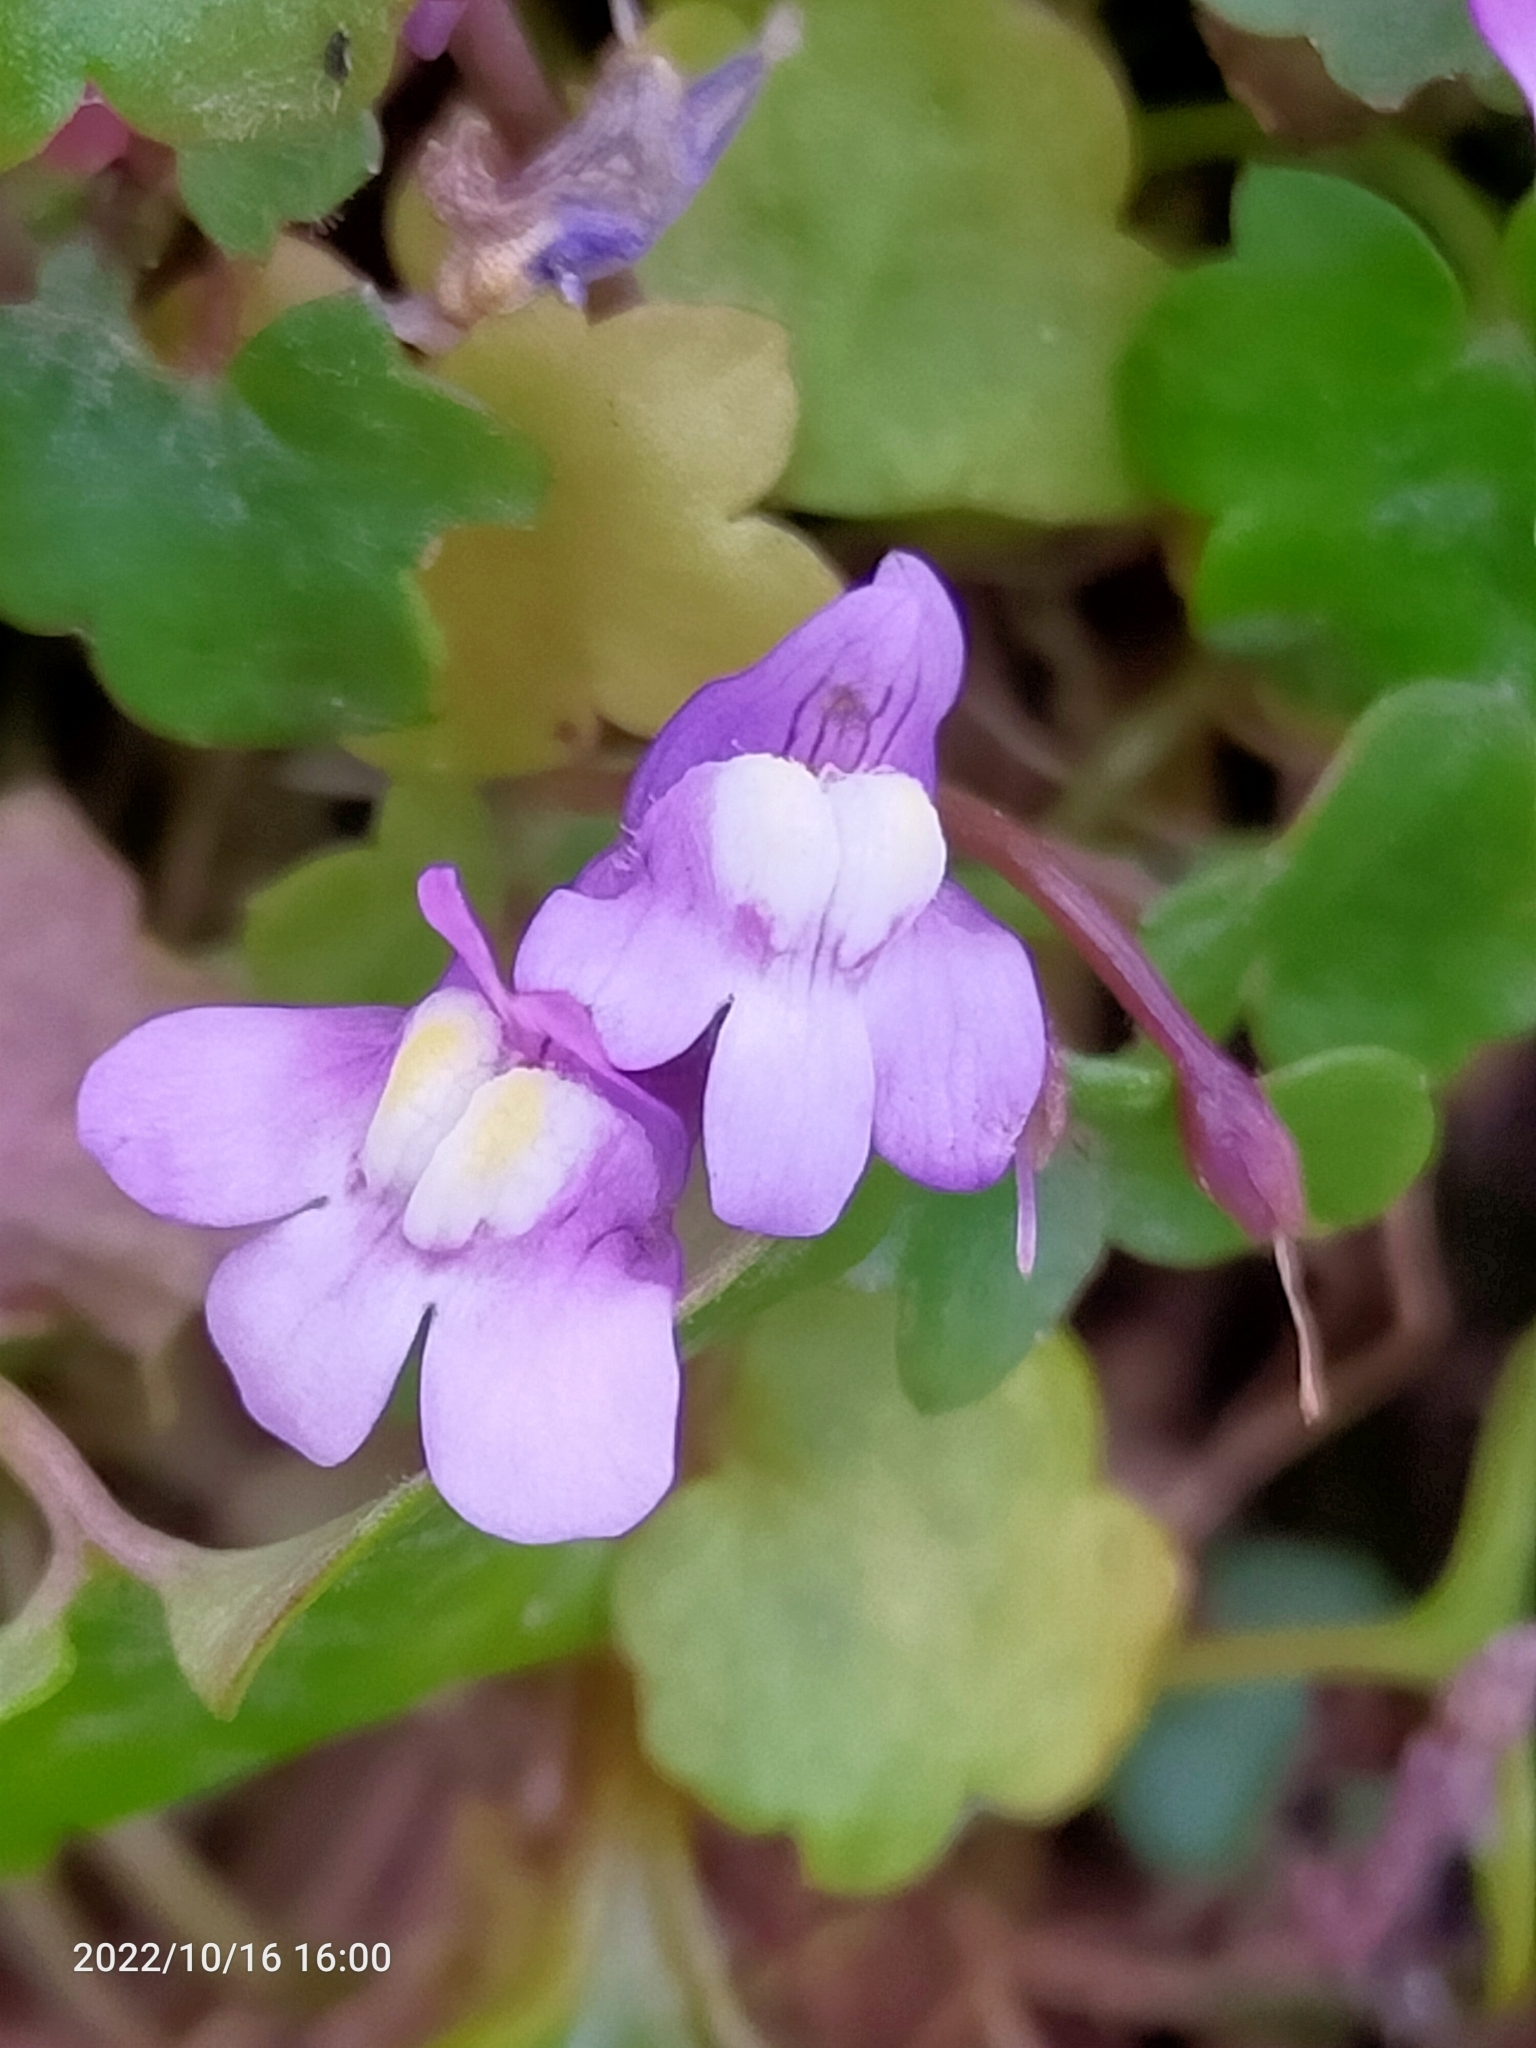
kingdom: Plantae
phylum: Tracheophyta
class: Magnoliopsida
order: Lamiales
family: Plantaginaceae
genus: Cymbalaria
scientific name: Cymbalaria muralis
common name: Ivy-leaved toadflax
